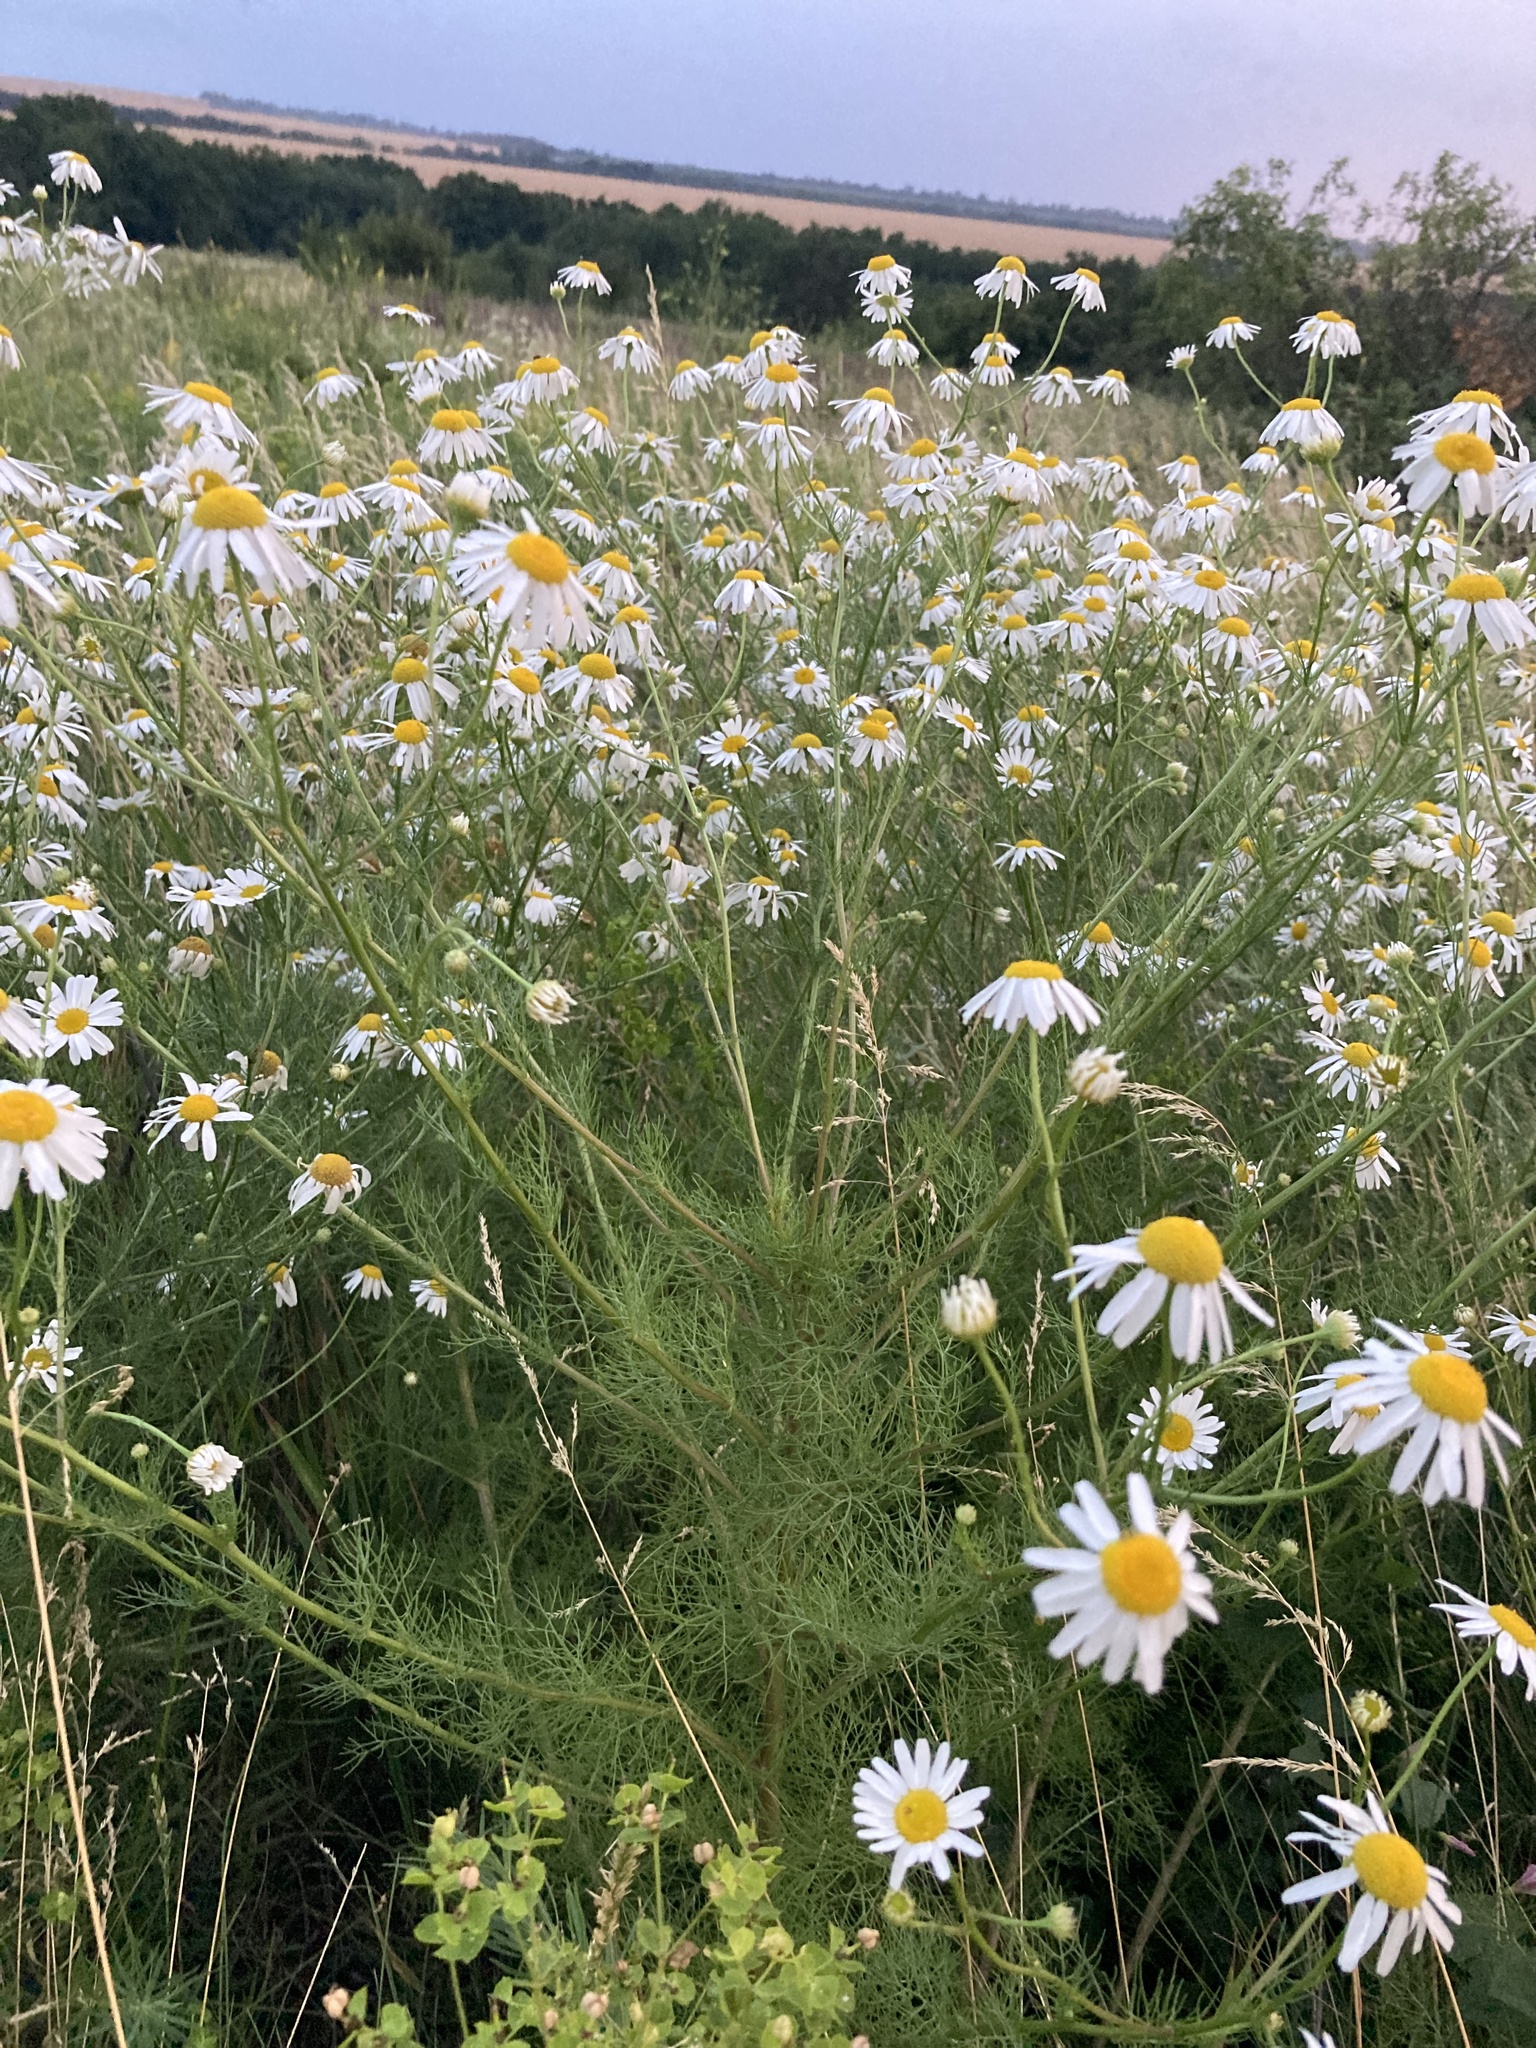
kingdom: Plantae
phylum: Tracheophyta
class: Magnoliopsida
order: Asterales
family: Asteraceae
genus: Tripleurospermum
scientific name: Tripleurospermum inodorum
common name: Scentless mayweed
